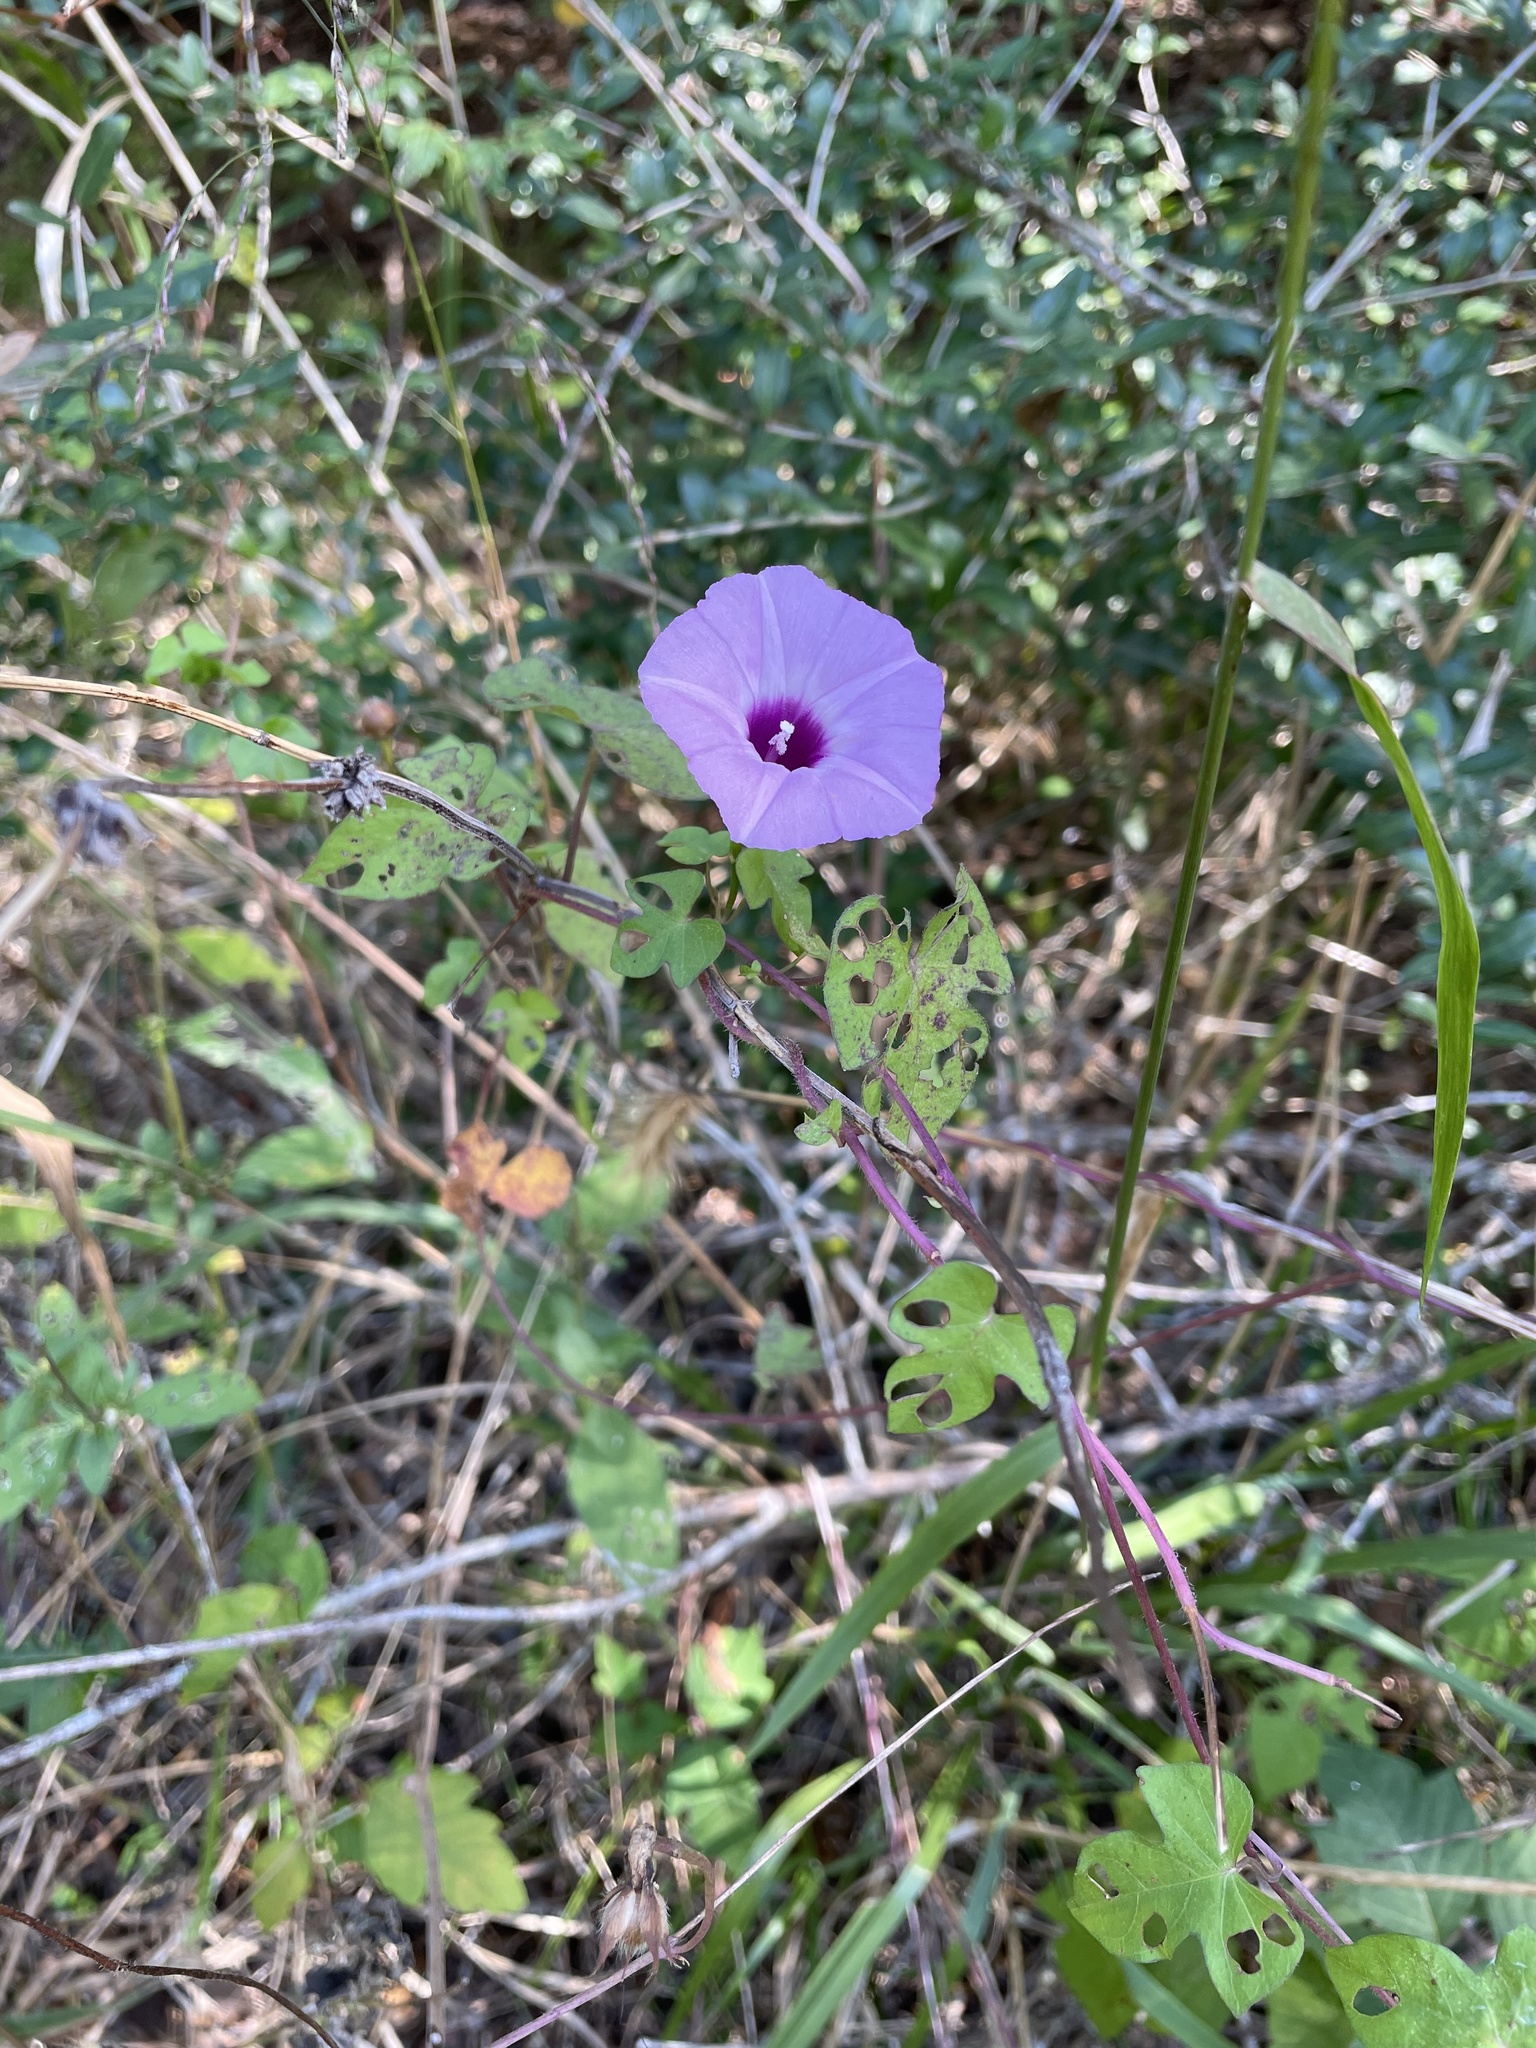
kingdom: Plantae
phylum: Tracheophyta
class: Magnoliopsida
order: Solanales
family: Convolvulaceae
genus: Ipomoea
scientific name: Ipomoea cordatotriloba
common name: Cotton morning glory
